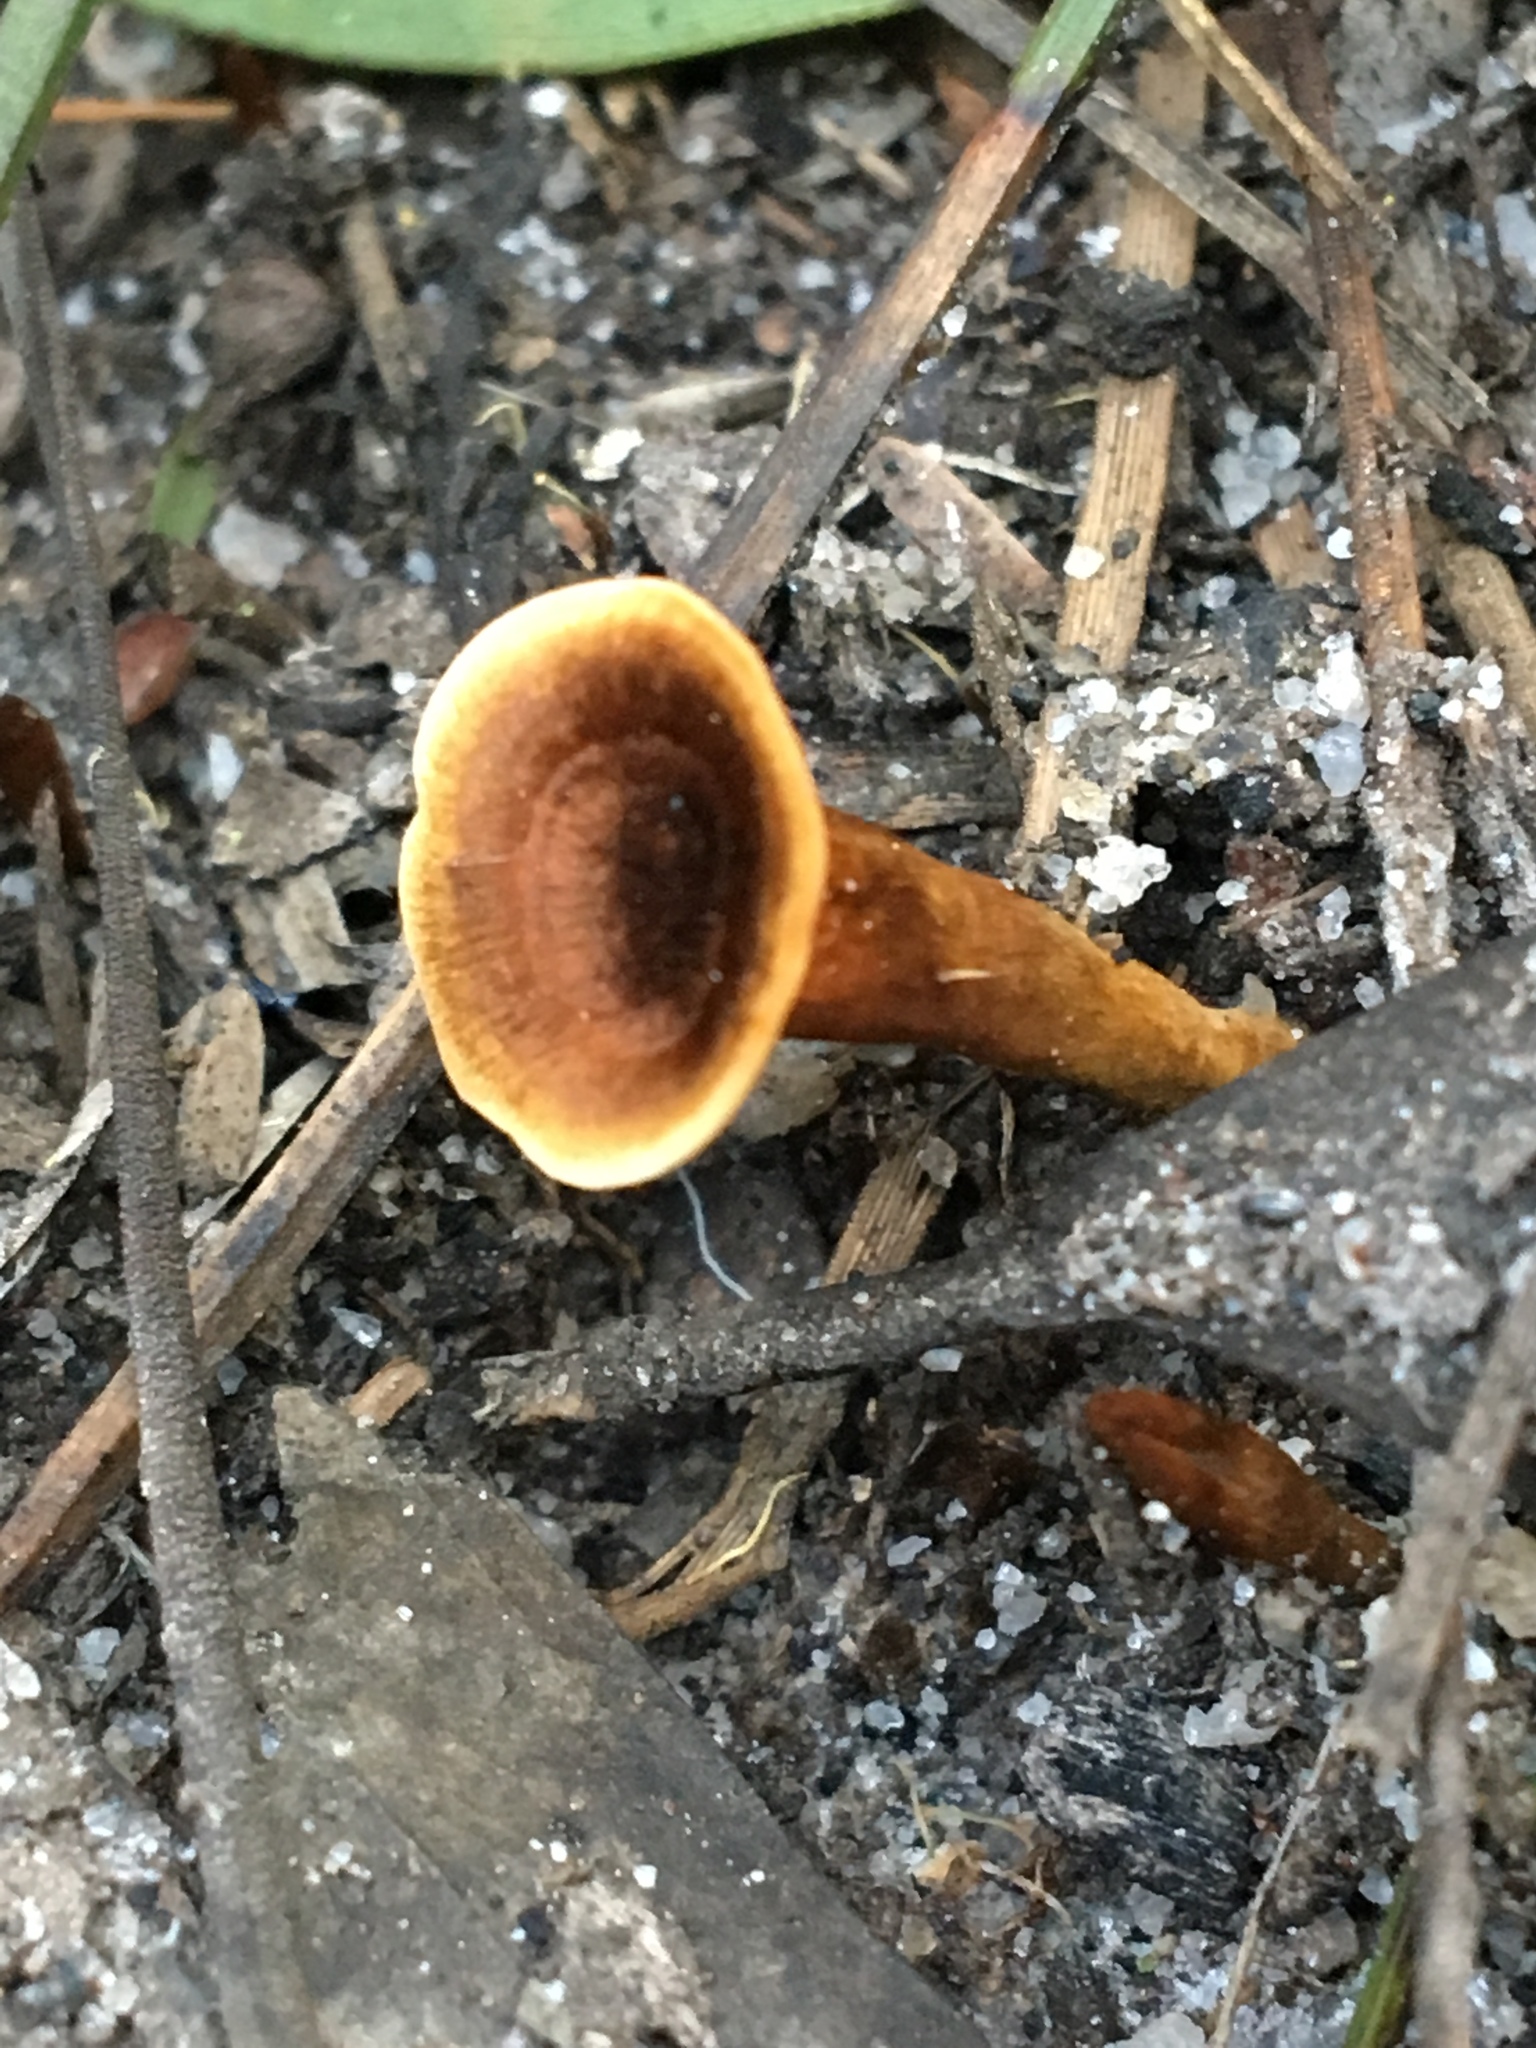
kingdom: Fungi
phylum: Basidiomycota
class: Agaricomycetes
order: Hymenochaetales
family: Hymenochaetaceae
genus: Coltricia
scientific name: Coltricia australica
